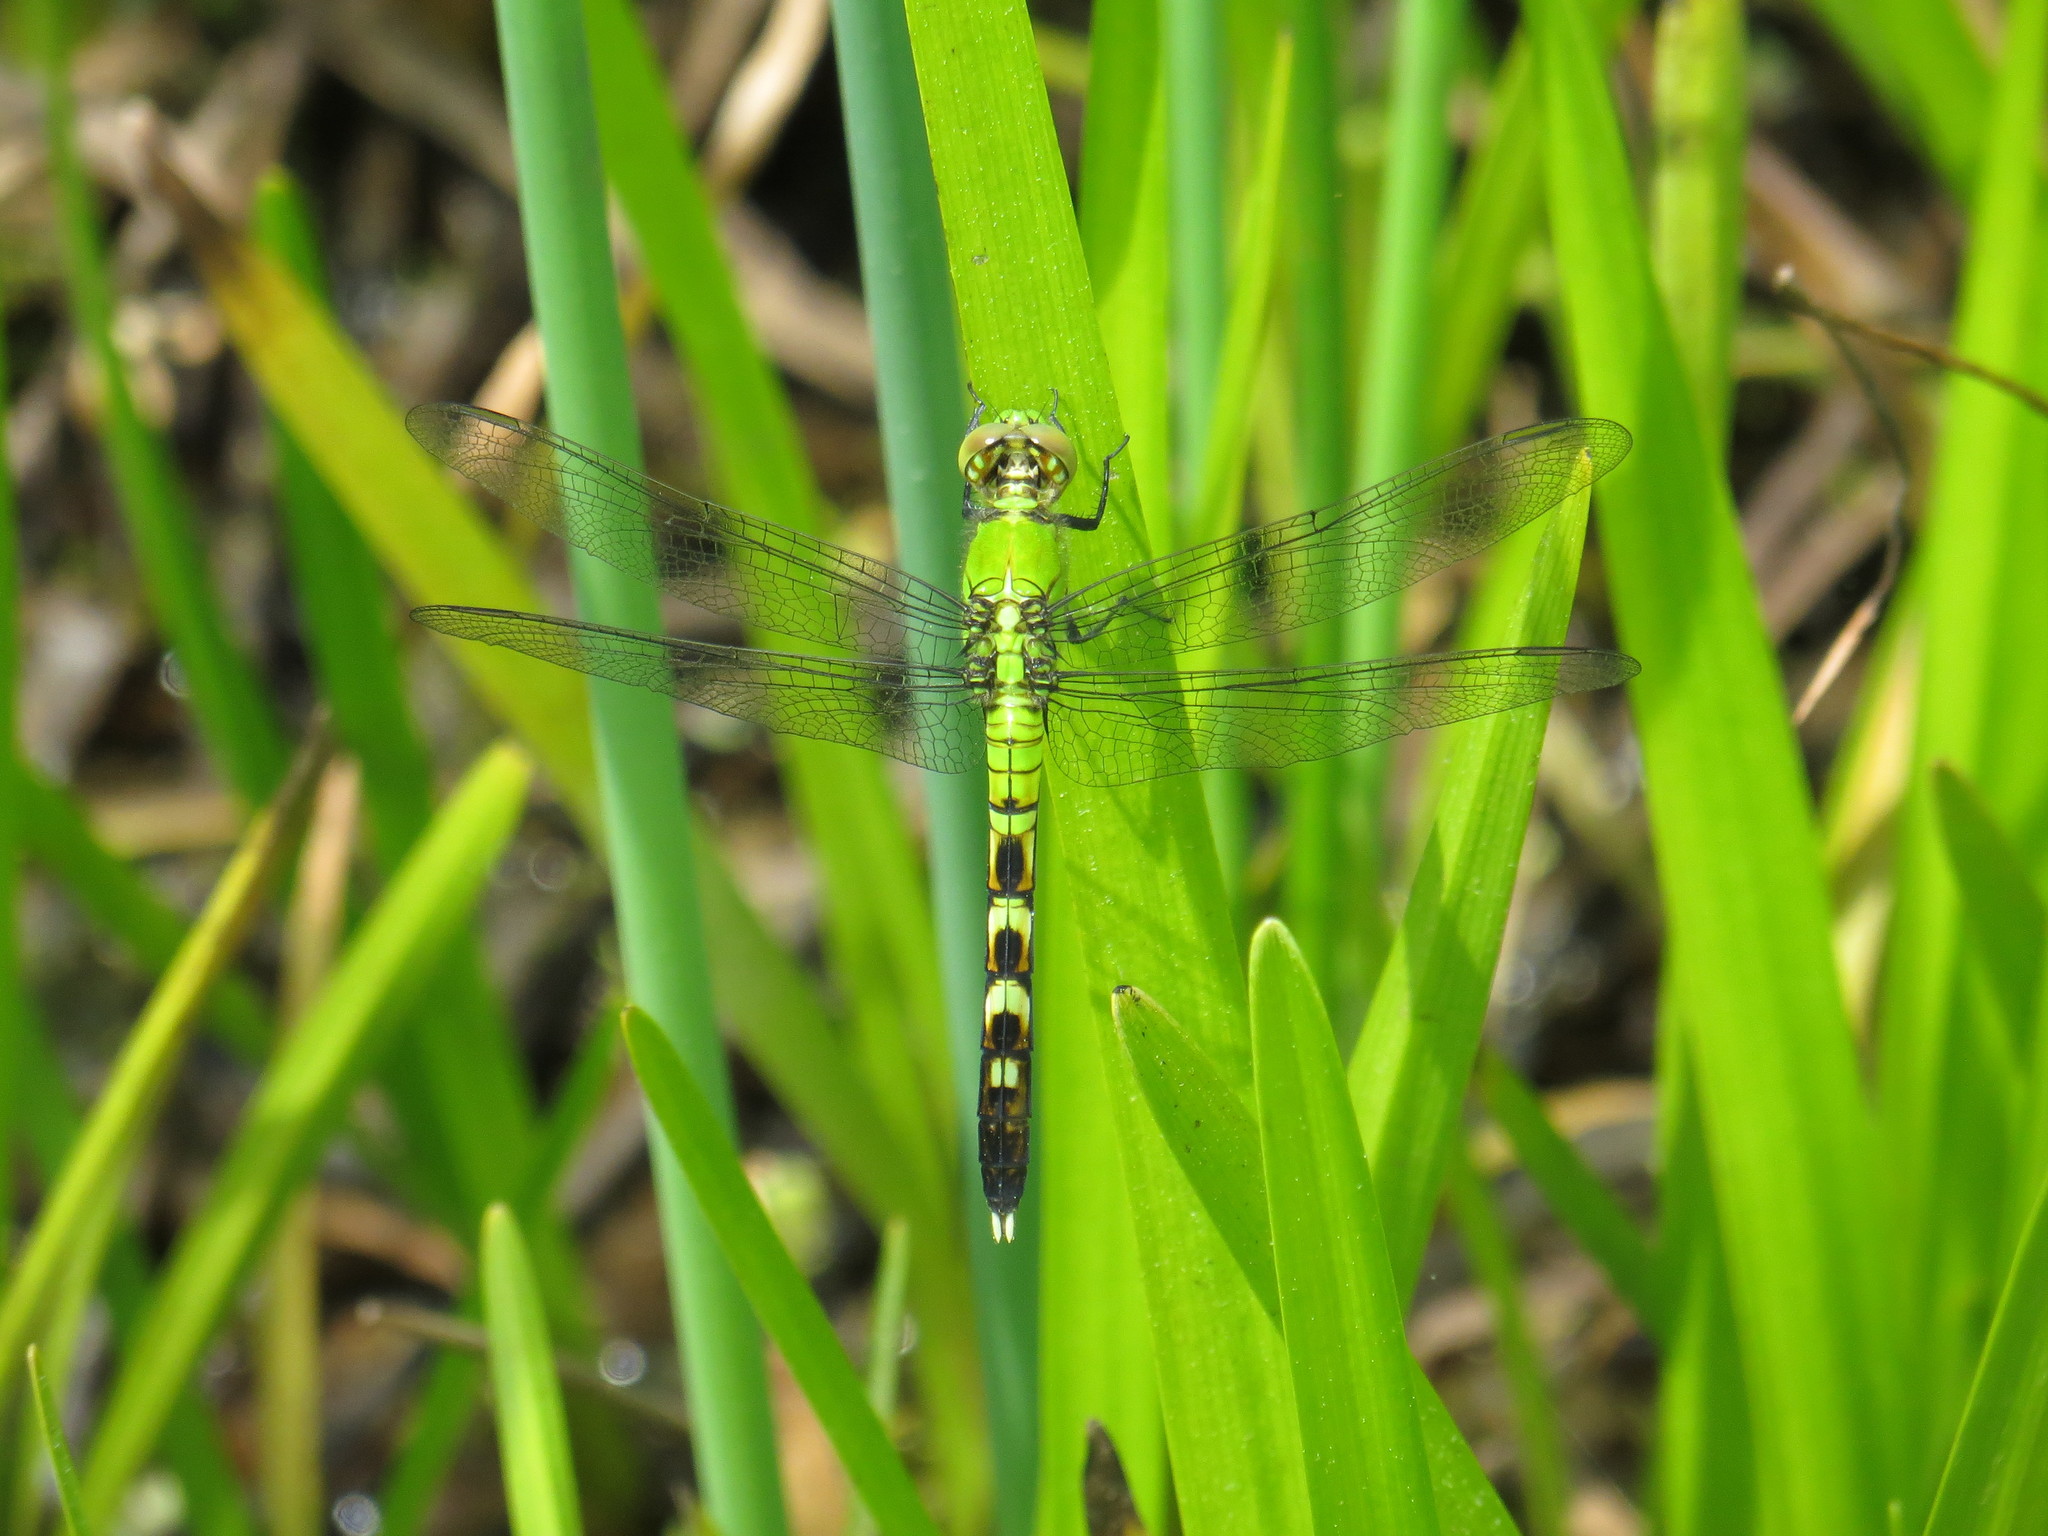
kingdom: Animalia
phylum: Arthropoda
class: Insecta
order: Odonata
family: Libellulidae
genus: Erythemis
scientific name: Erythemis simplicicollis
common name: Eastern pondhawk
